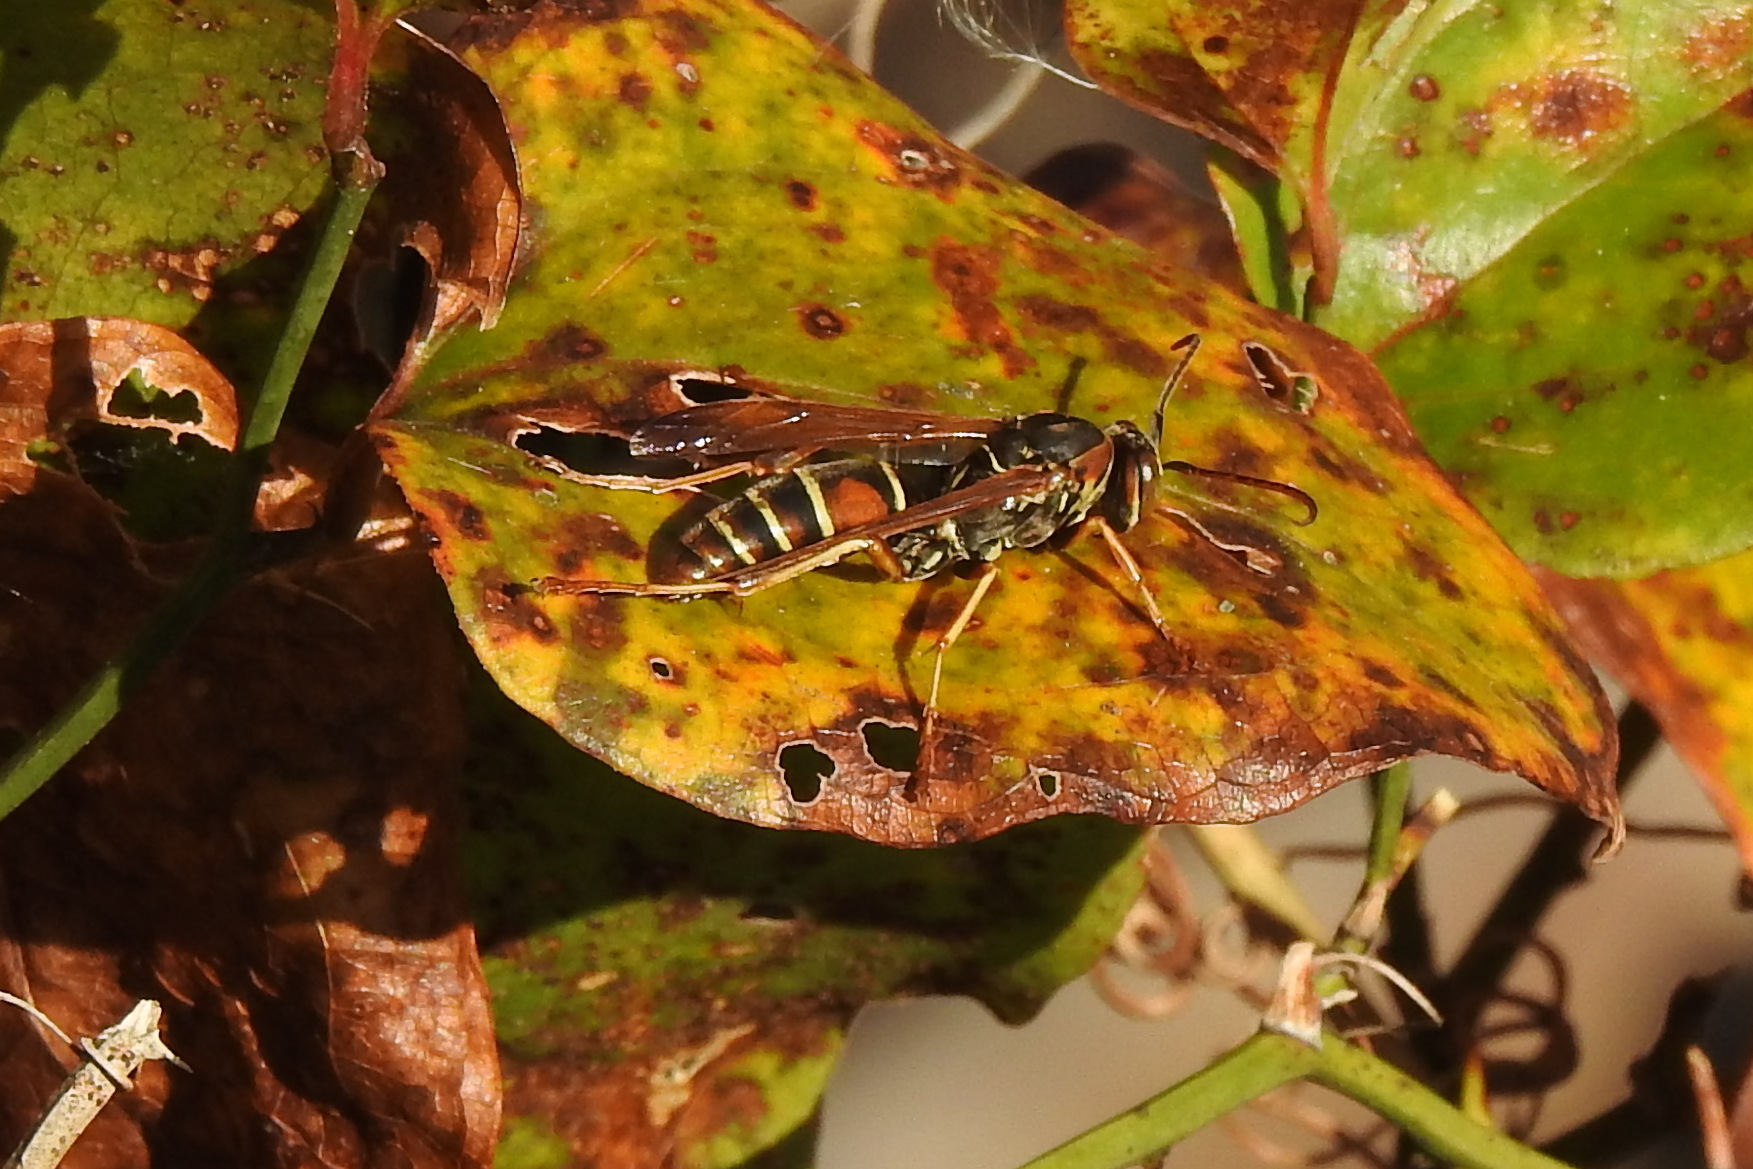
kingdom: Animalia
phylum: Arthropoda
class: Insecta
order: Hymenoptera
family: Eumenidae
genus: Polistes
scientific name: Polistes fuscatus
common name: Dark paper wasp
